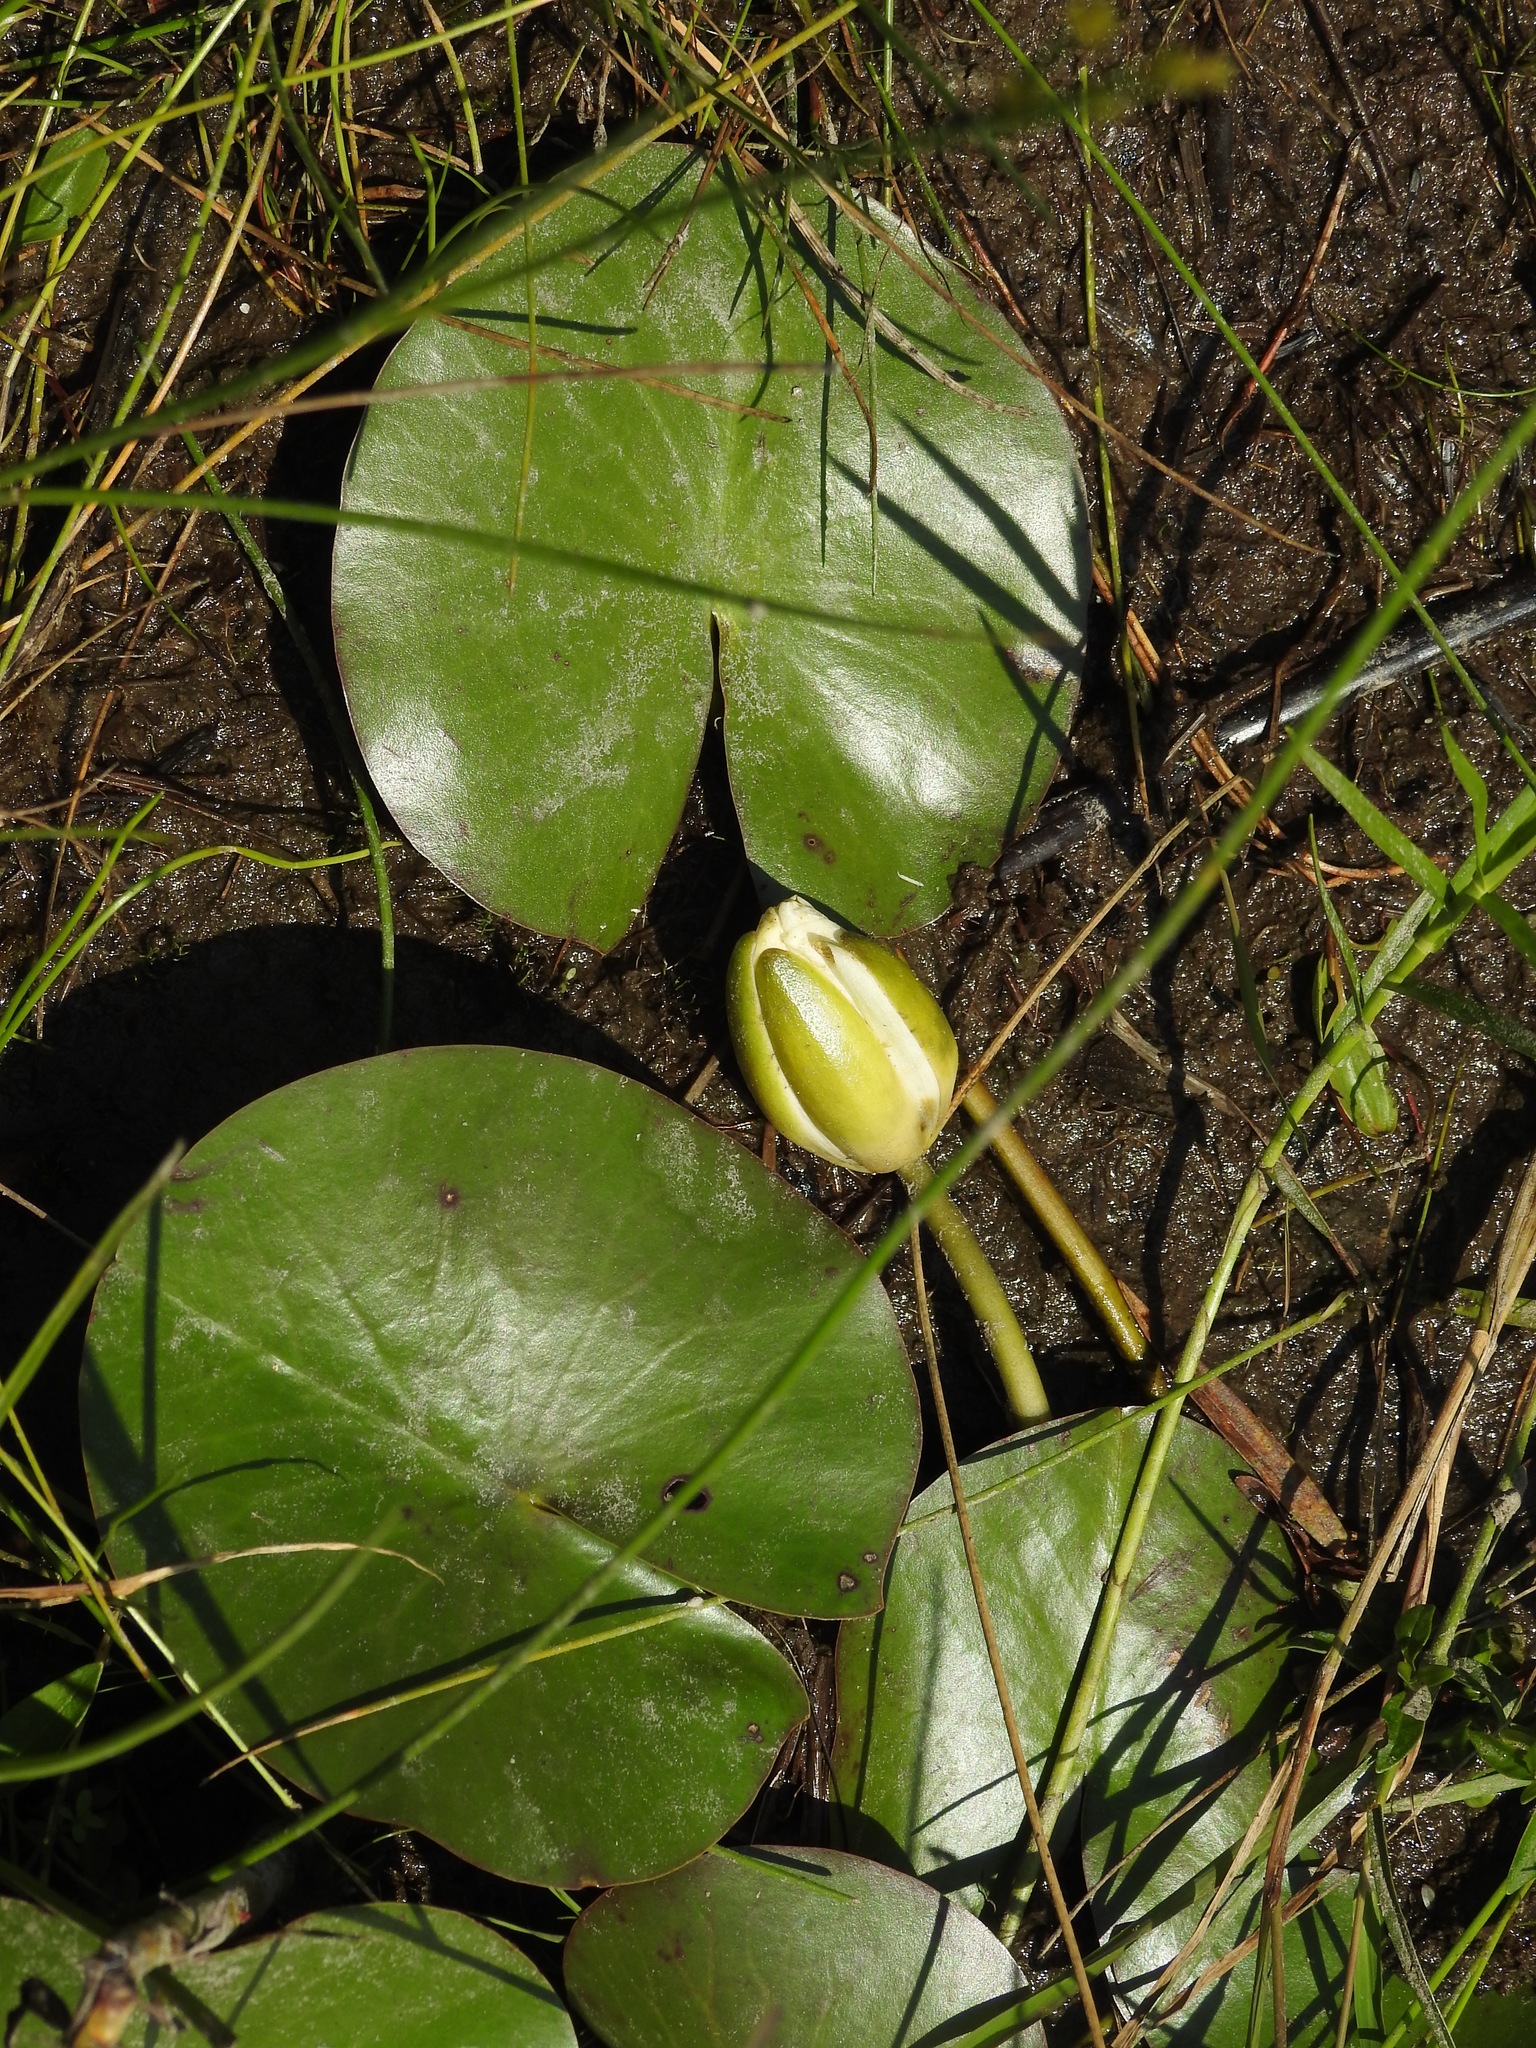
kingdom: Plantae
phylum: Tracheophyta
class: Magnoliopsida
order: Nymphaeales
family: Nymphaeaceae
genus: Nymphaea
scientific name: Nymphaea odorata
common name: Fragrant water-lily
